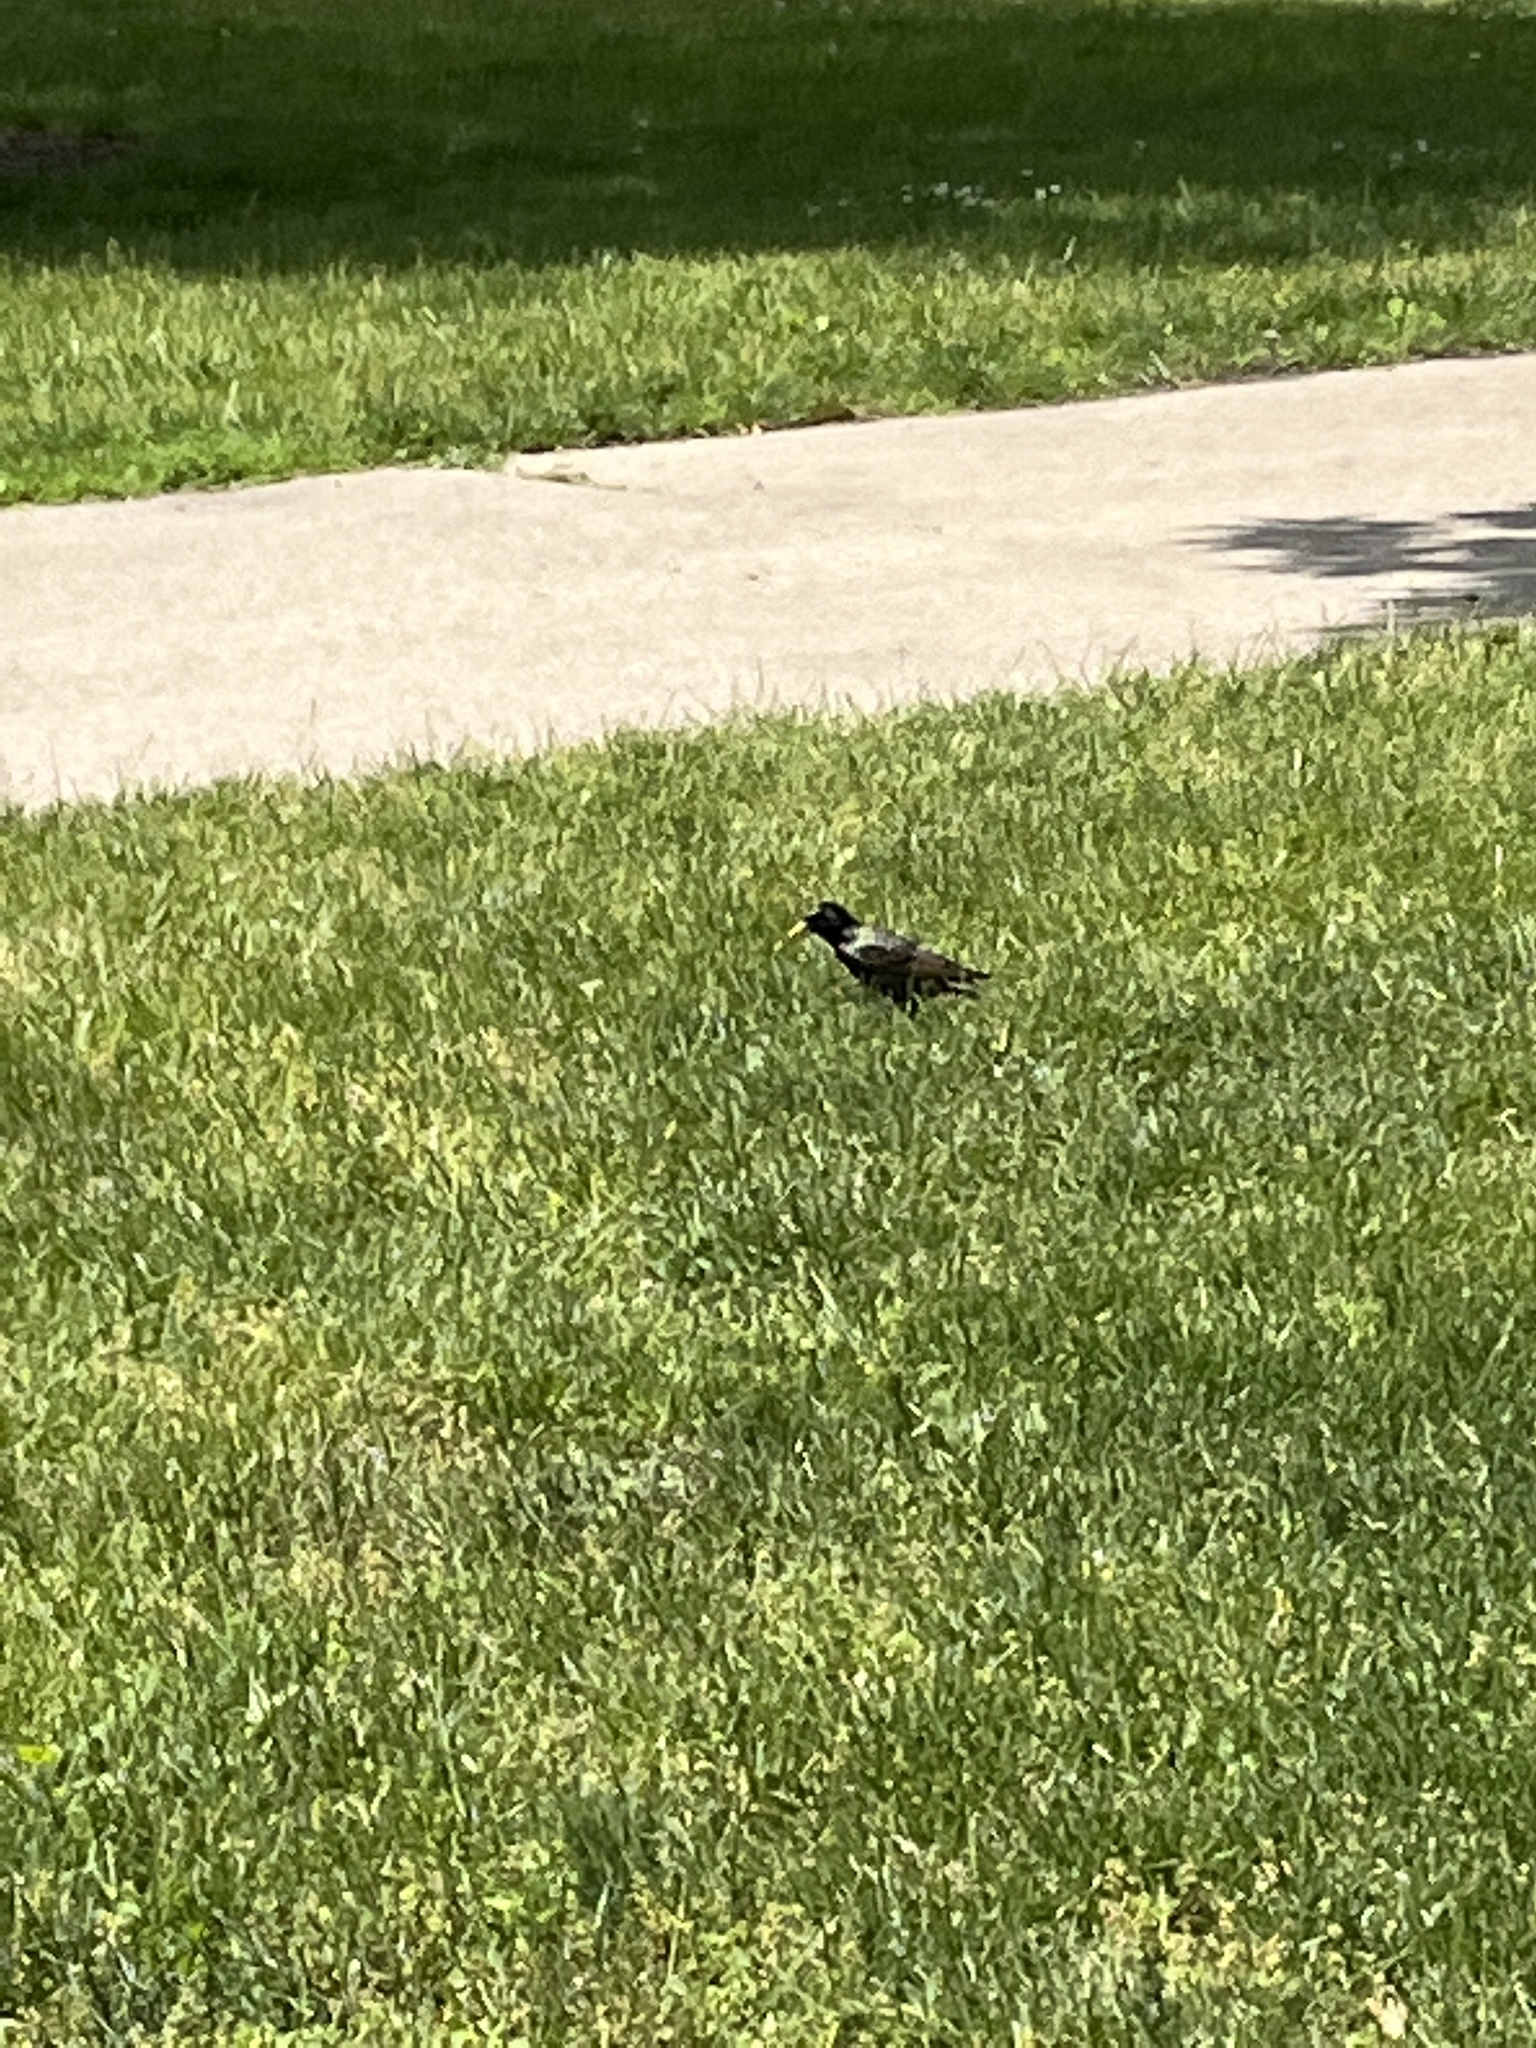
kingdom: Animalia
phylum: Chordata
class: Aves
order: Passeriformes
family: Sturnidae
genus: Sturnus
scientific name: Sturnus vulgaris
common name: Common starling
